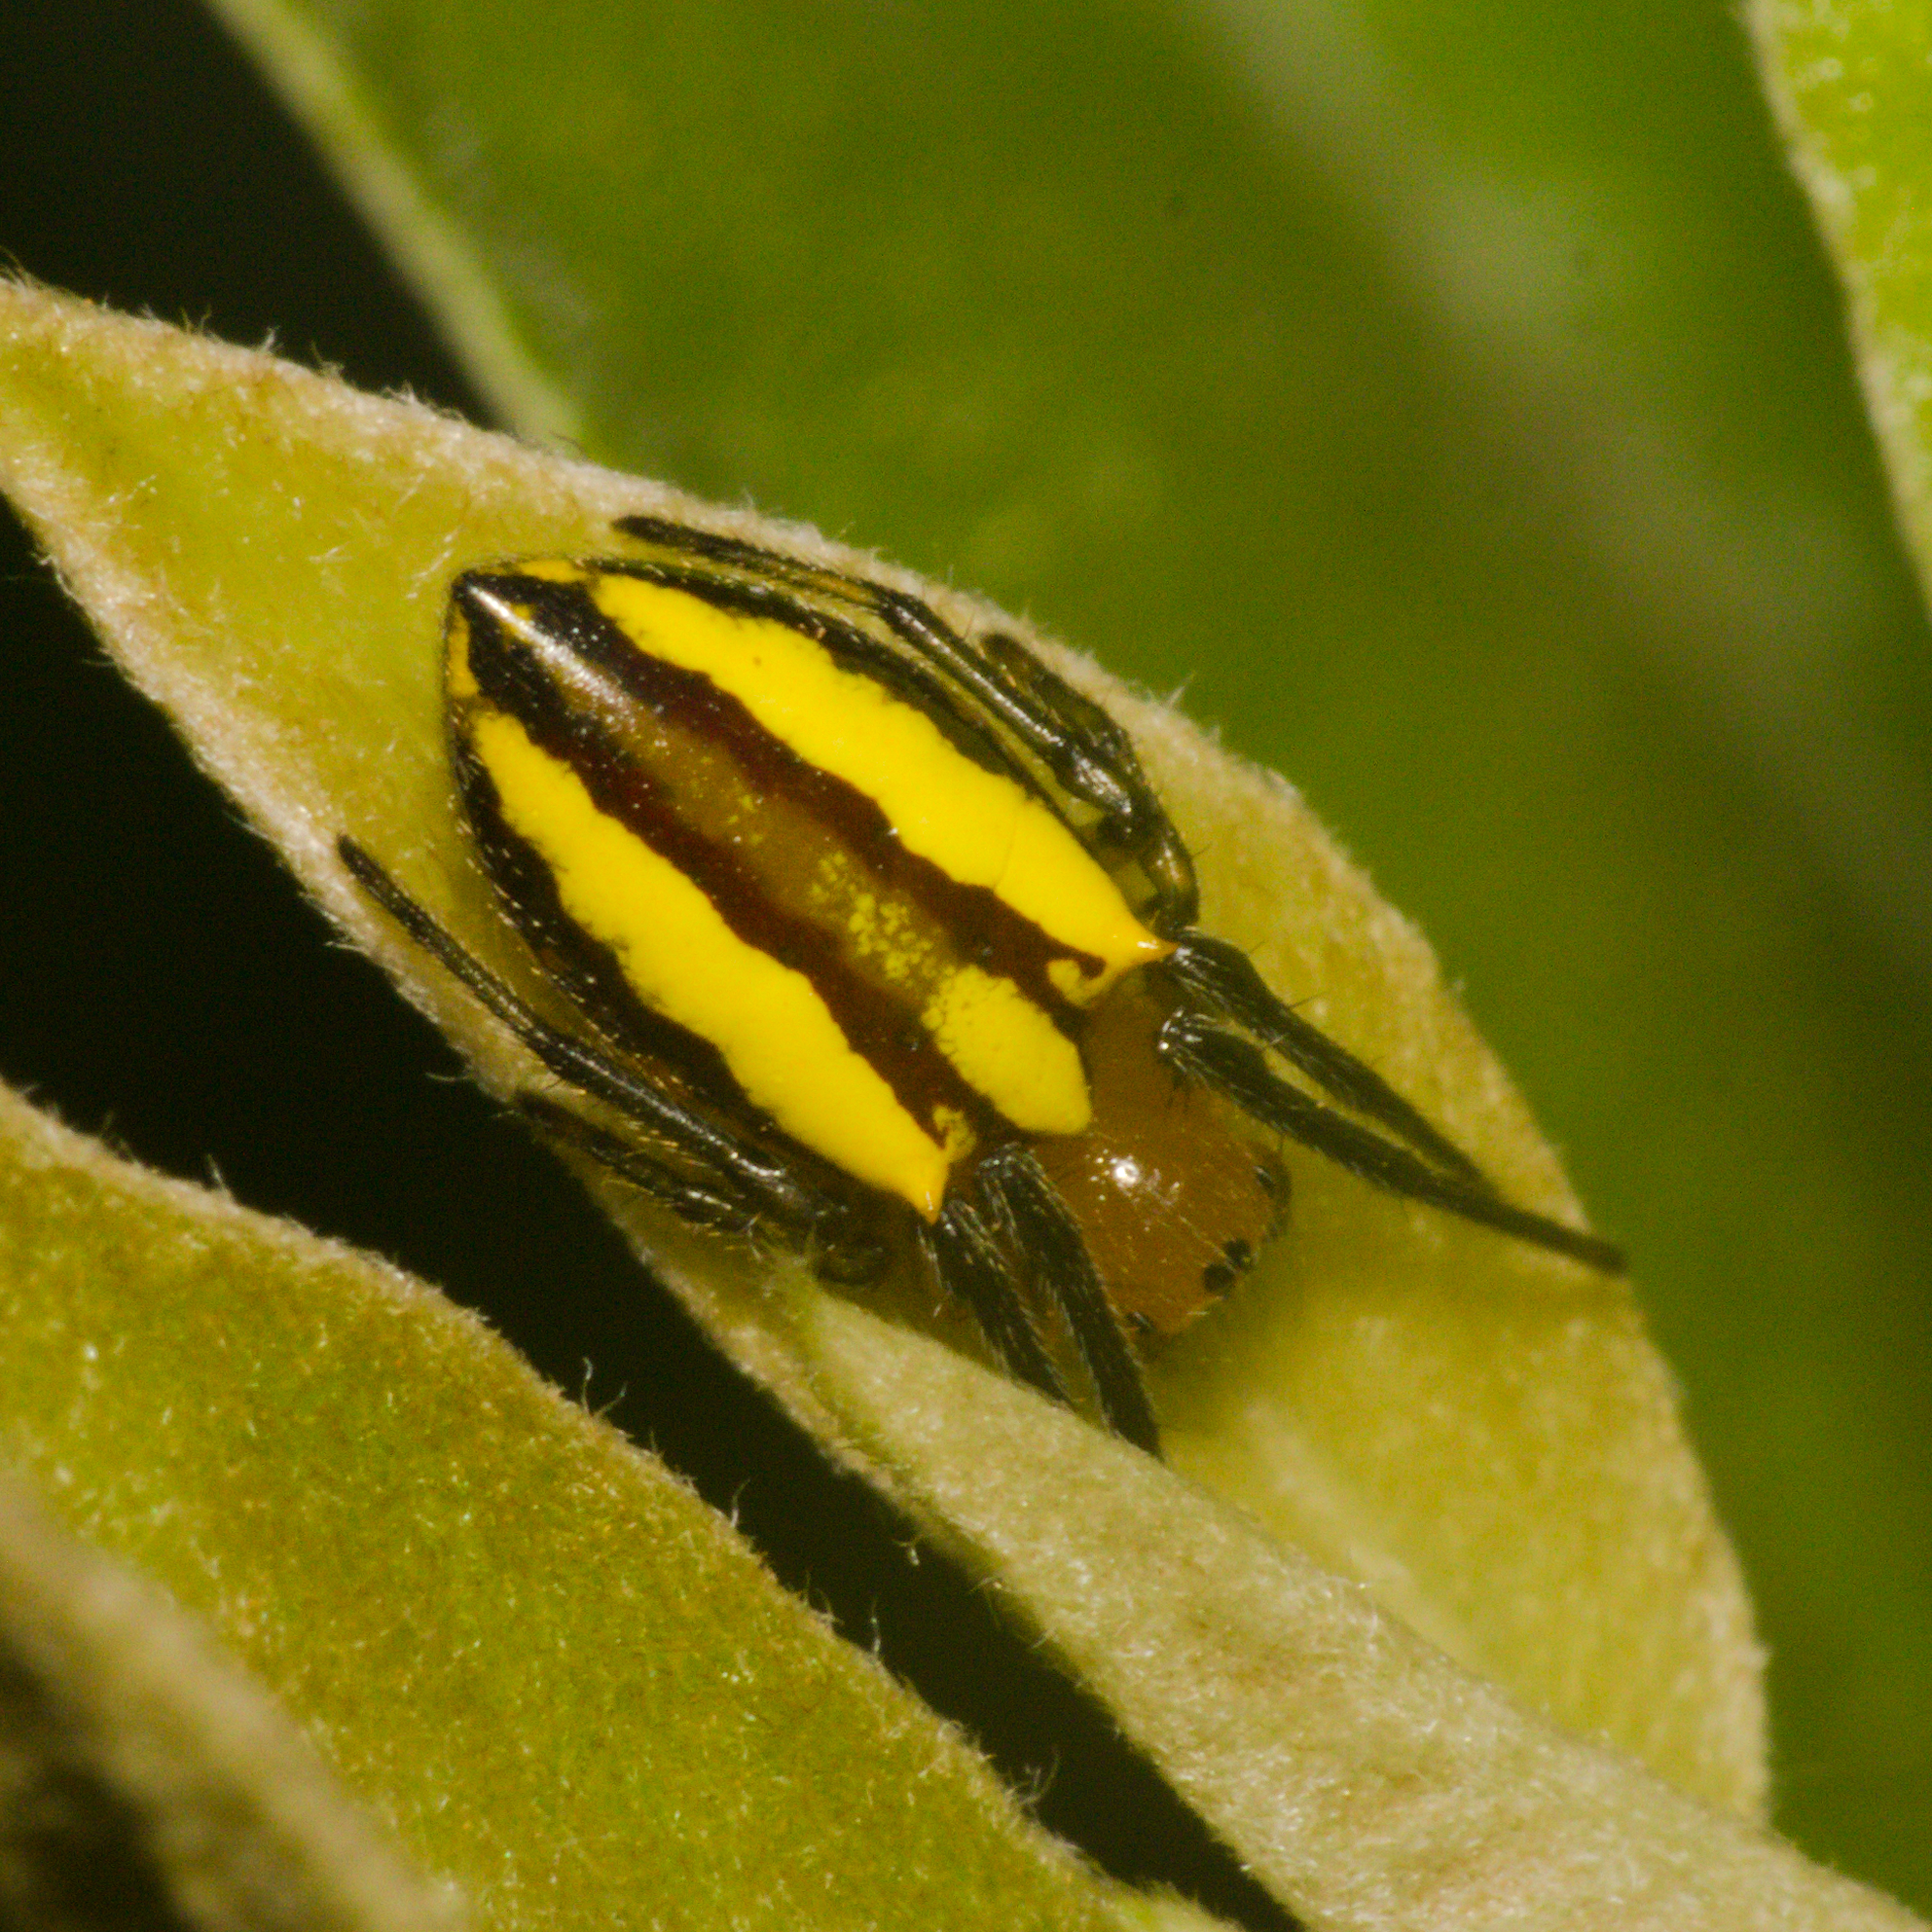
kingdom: Animalia
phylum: Arthropoda
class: Arachnida
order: Araneae
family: Araneidae
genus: Alpaida
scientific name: Alpaida bicornuta
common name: Orb weavers
